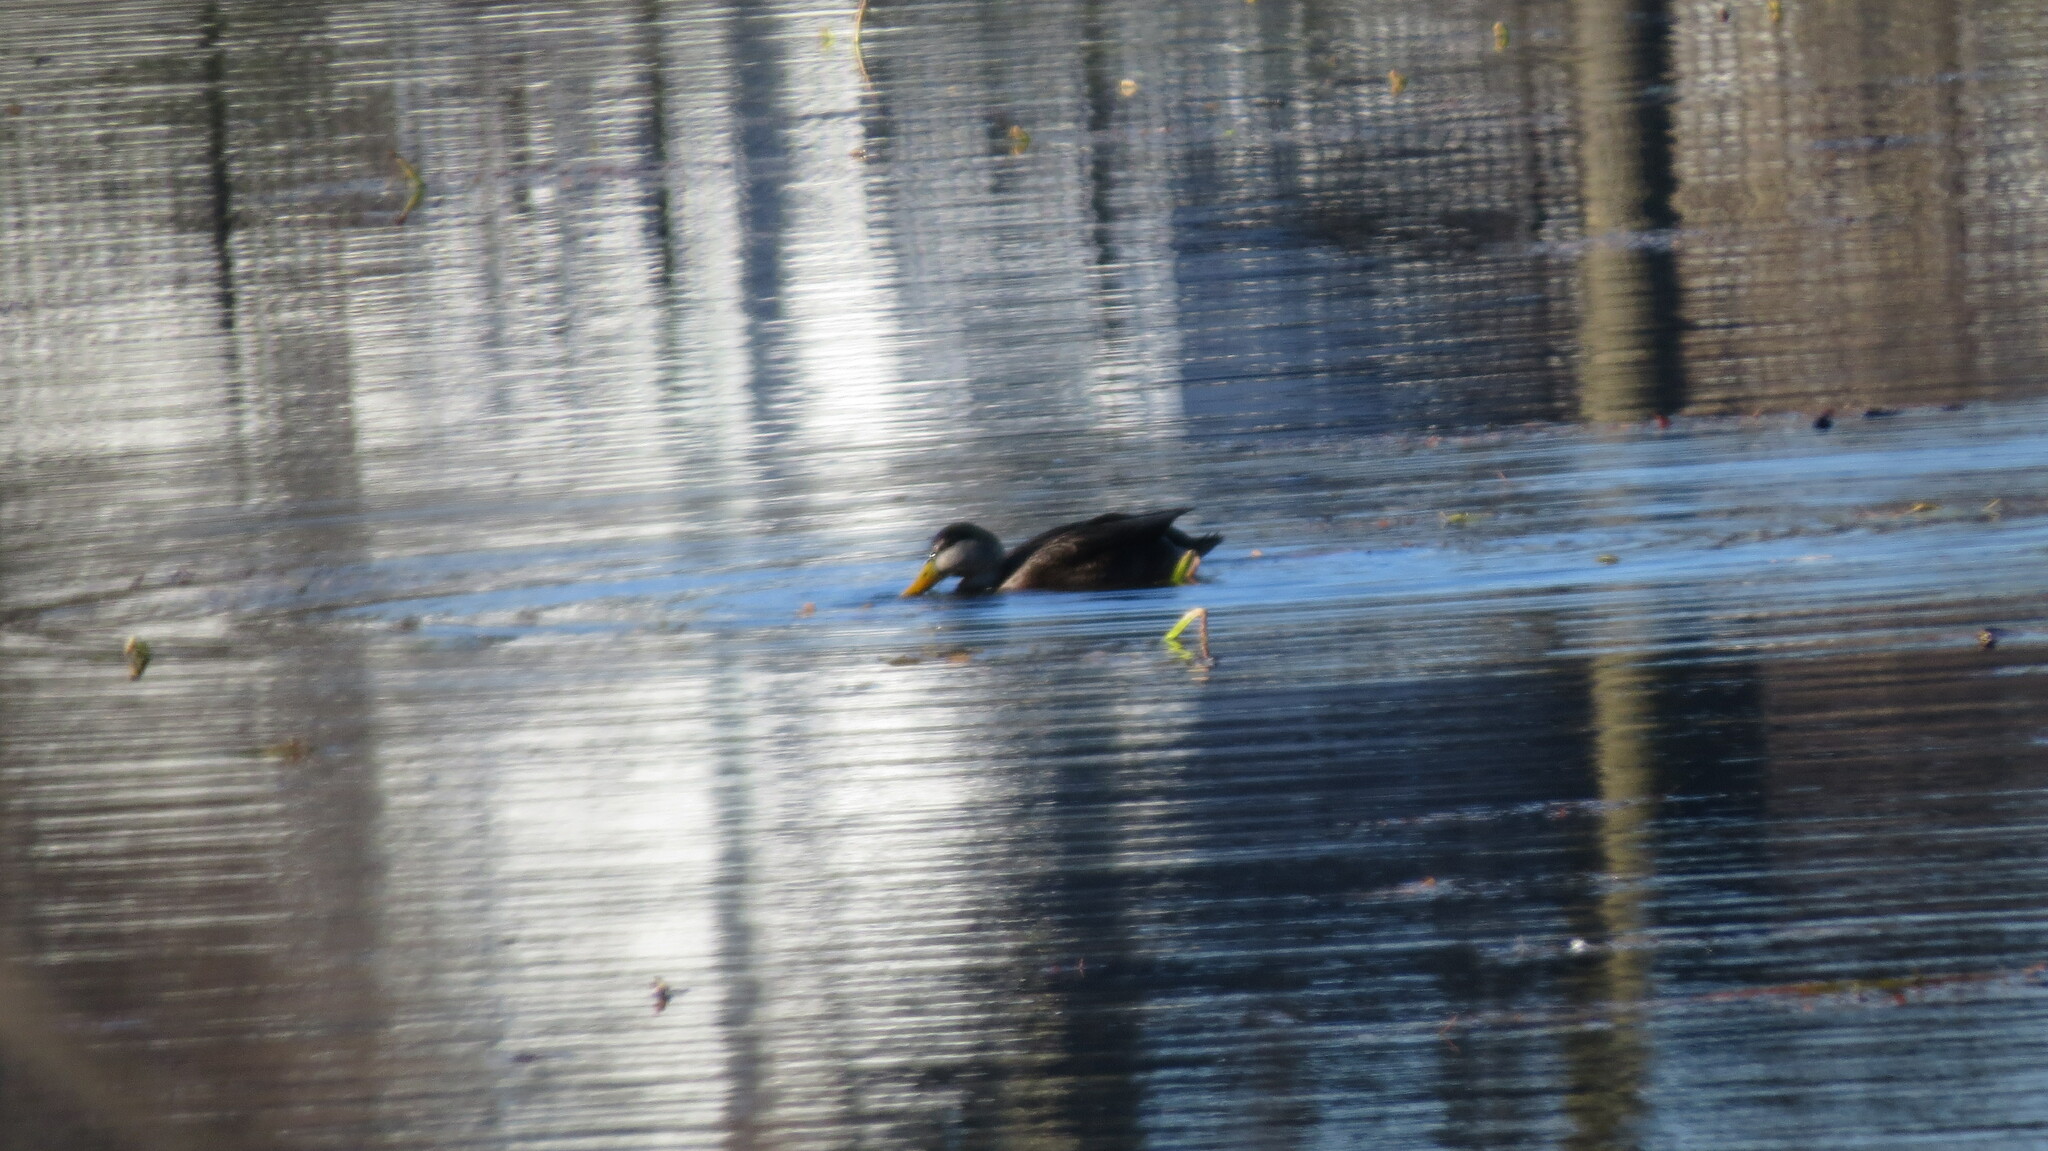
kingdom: Animalia
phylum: Chordata
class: Aves
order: Anseriformes
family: Anatidae
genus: Anas
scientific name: Anas
